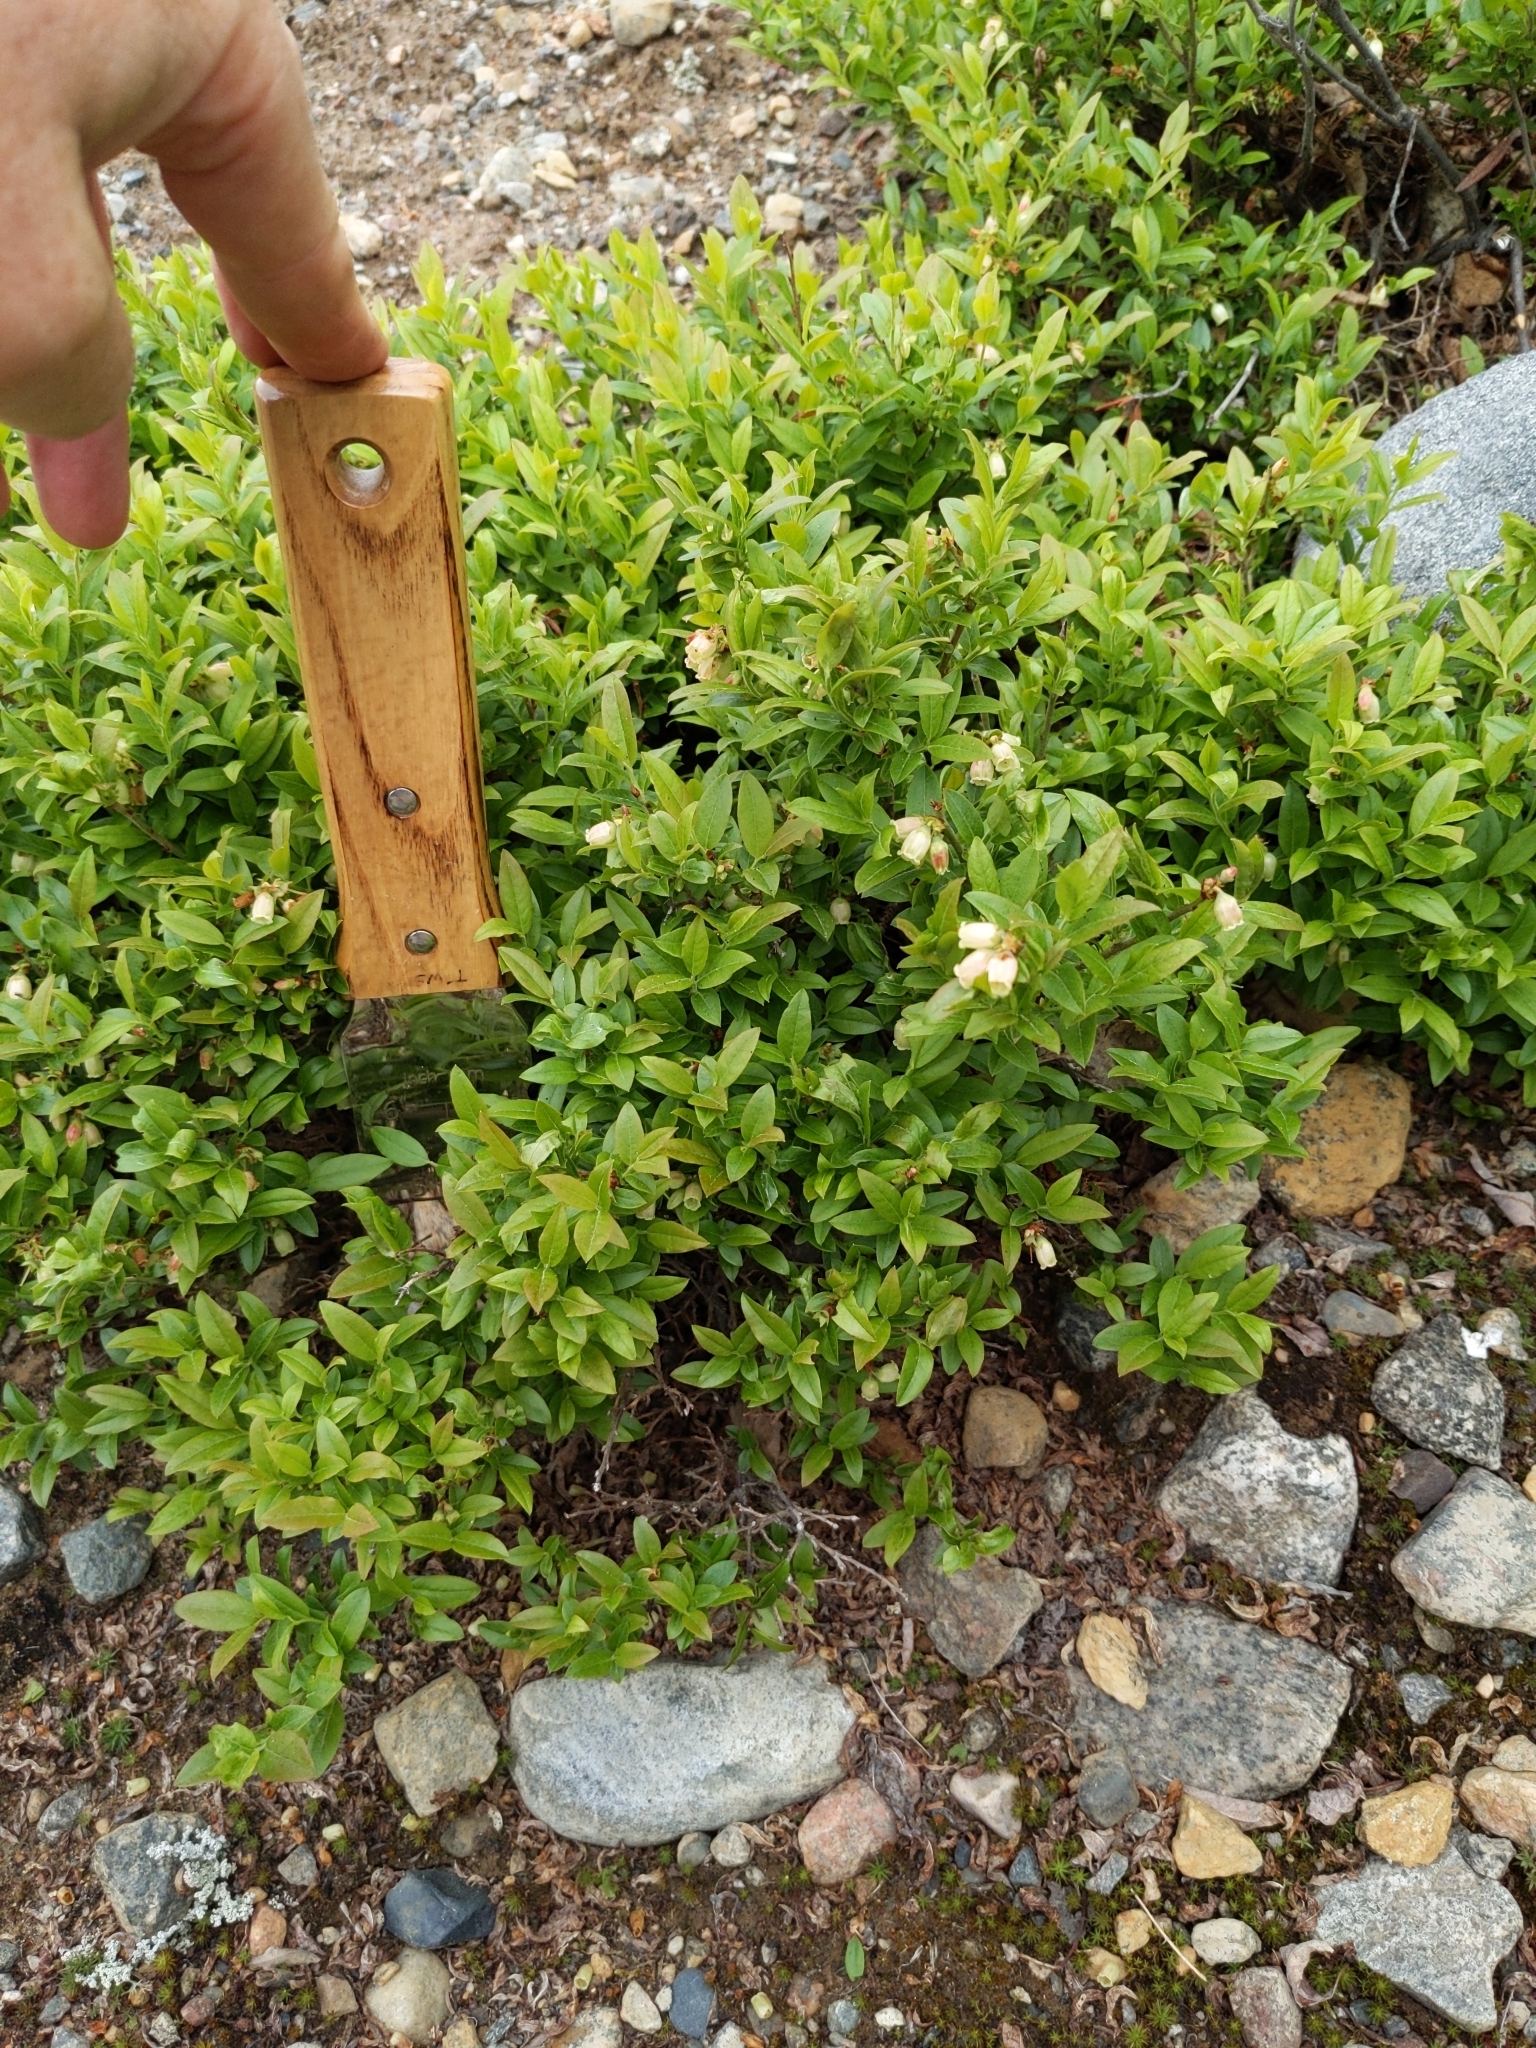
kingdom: Plantae
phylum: Tracheophyta
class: Magnoliopsida
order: Ericales
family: Ericaceae
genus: Vaccinium
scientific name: Vaccinium angustifolium
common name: Early lowbush blueberry
